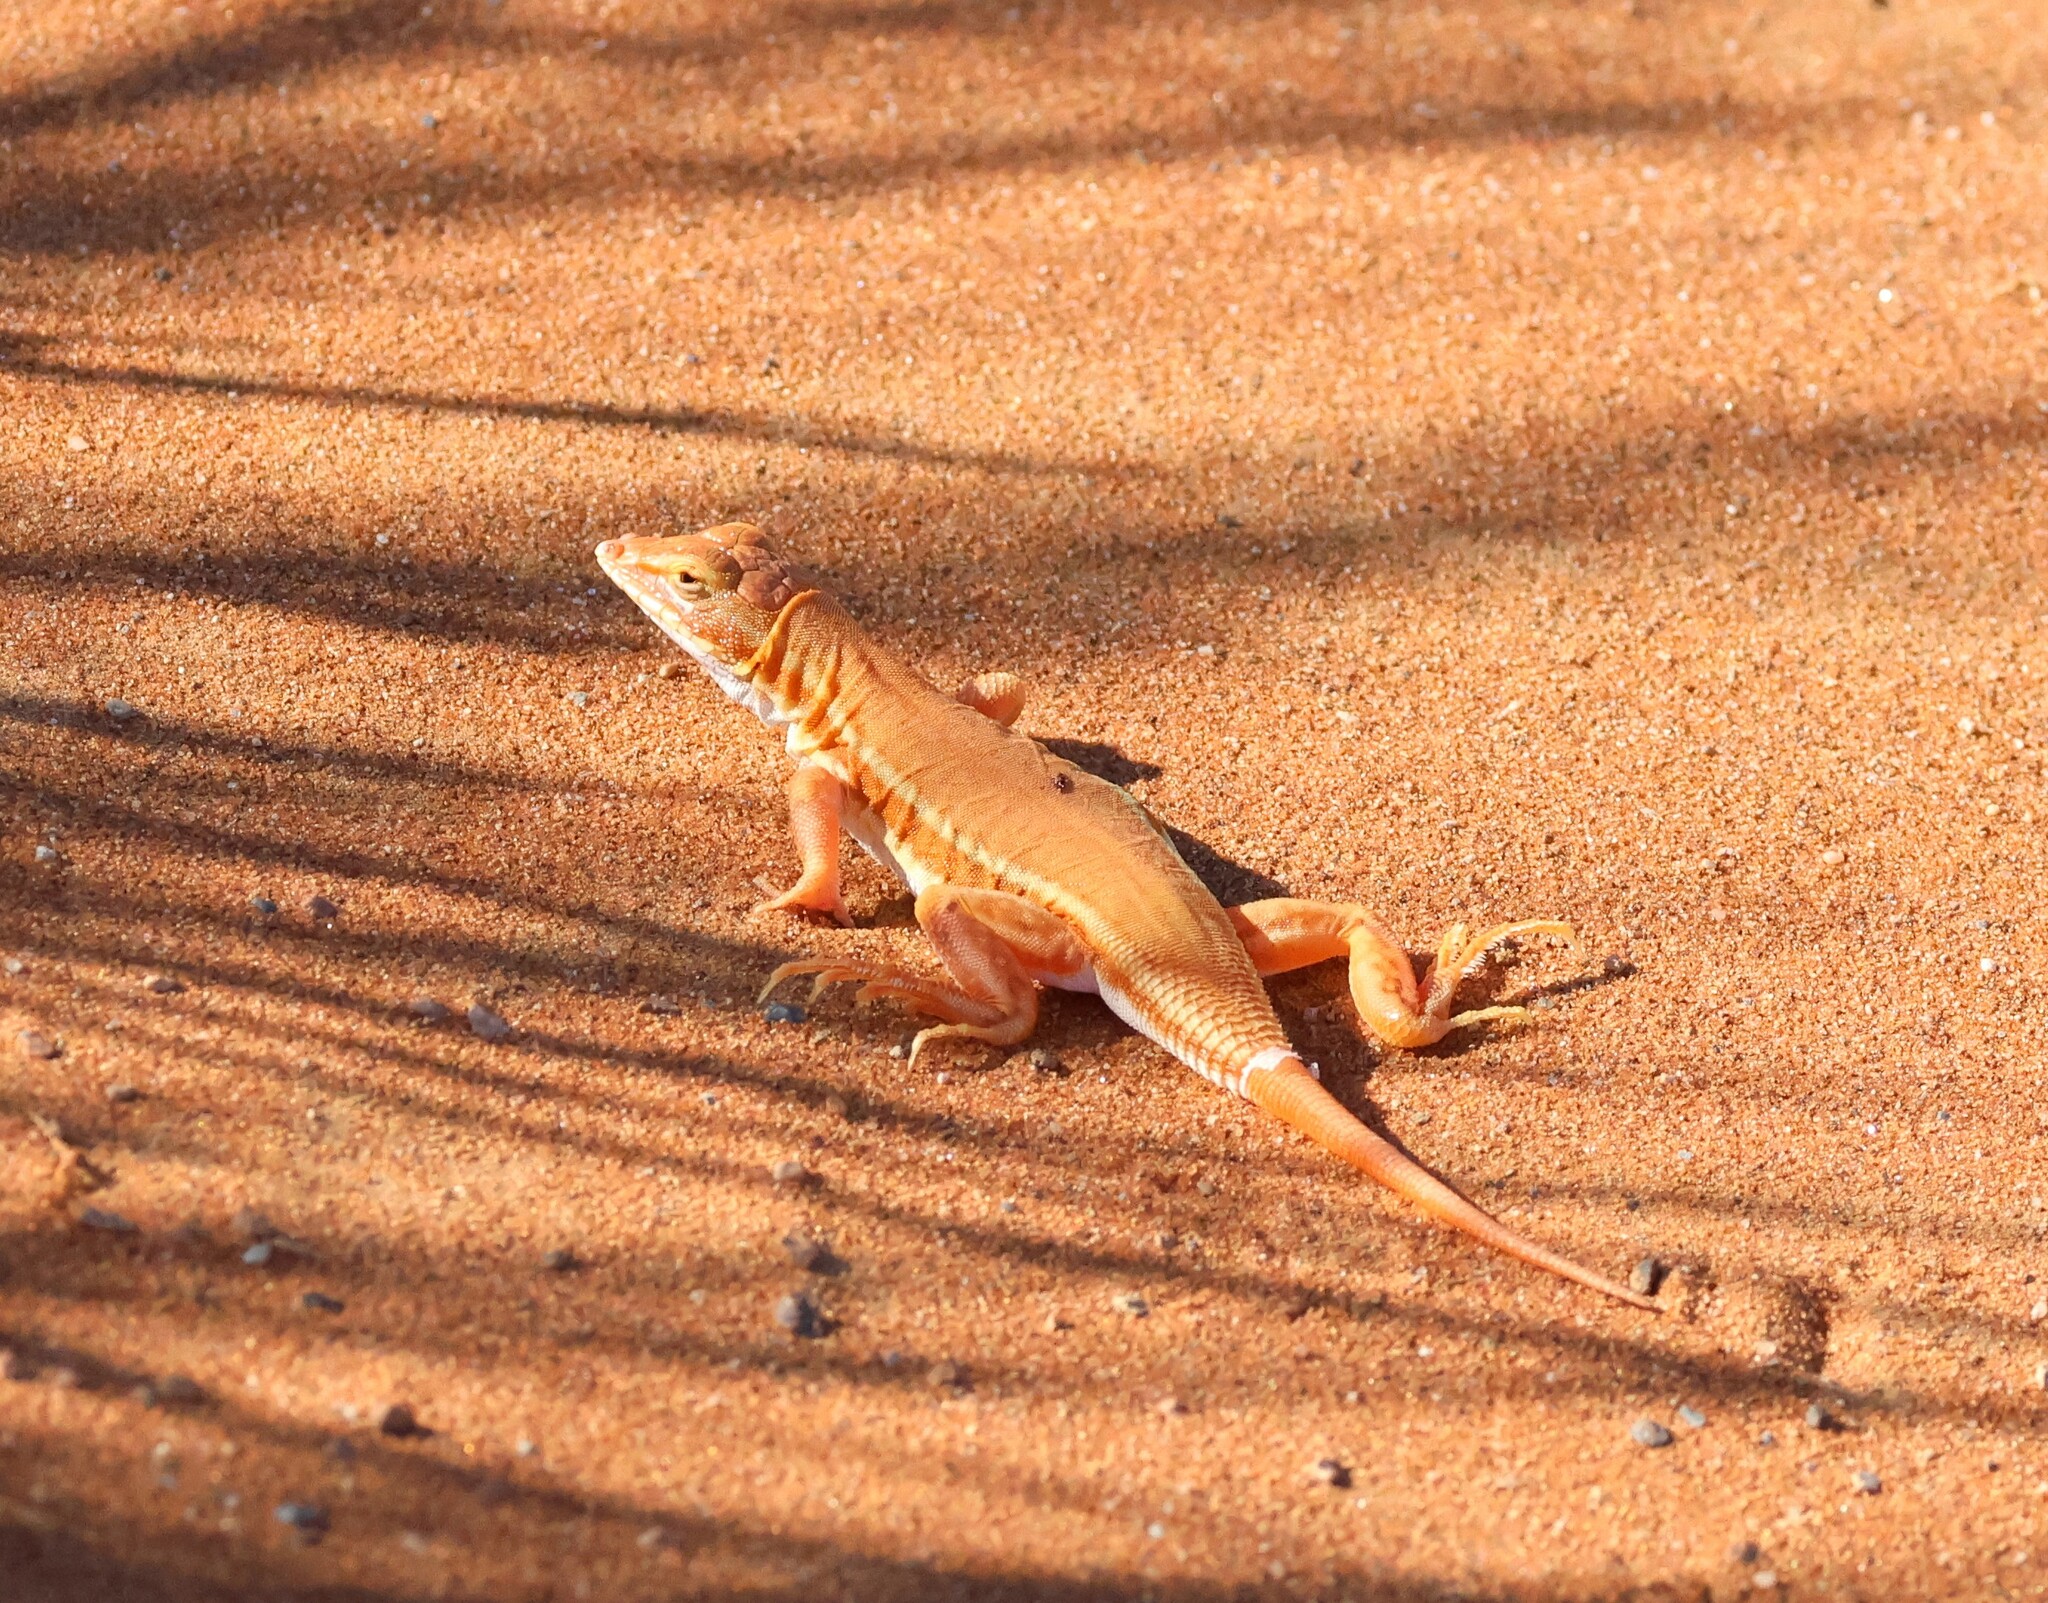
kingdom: Animalia
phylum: Chordata
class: Squamata
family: Lacertidae
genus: Meroles
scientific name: Meroles cuneirostris
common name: Wedge-snouted desert lizard
